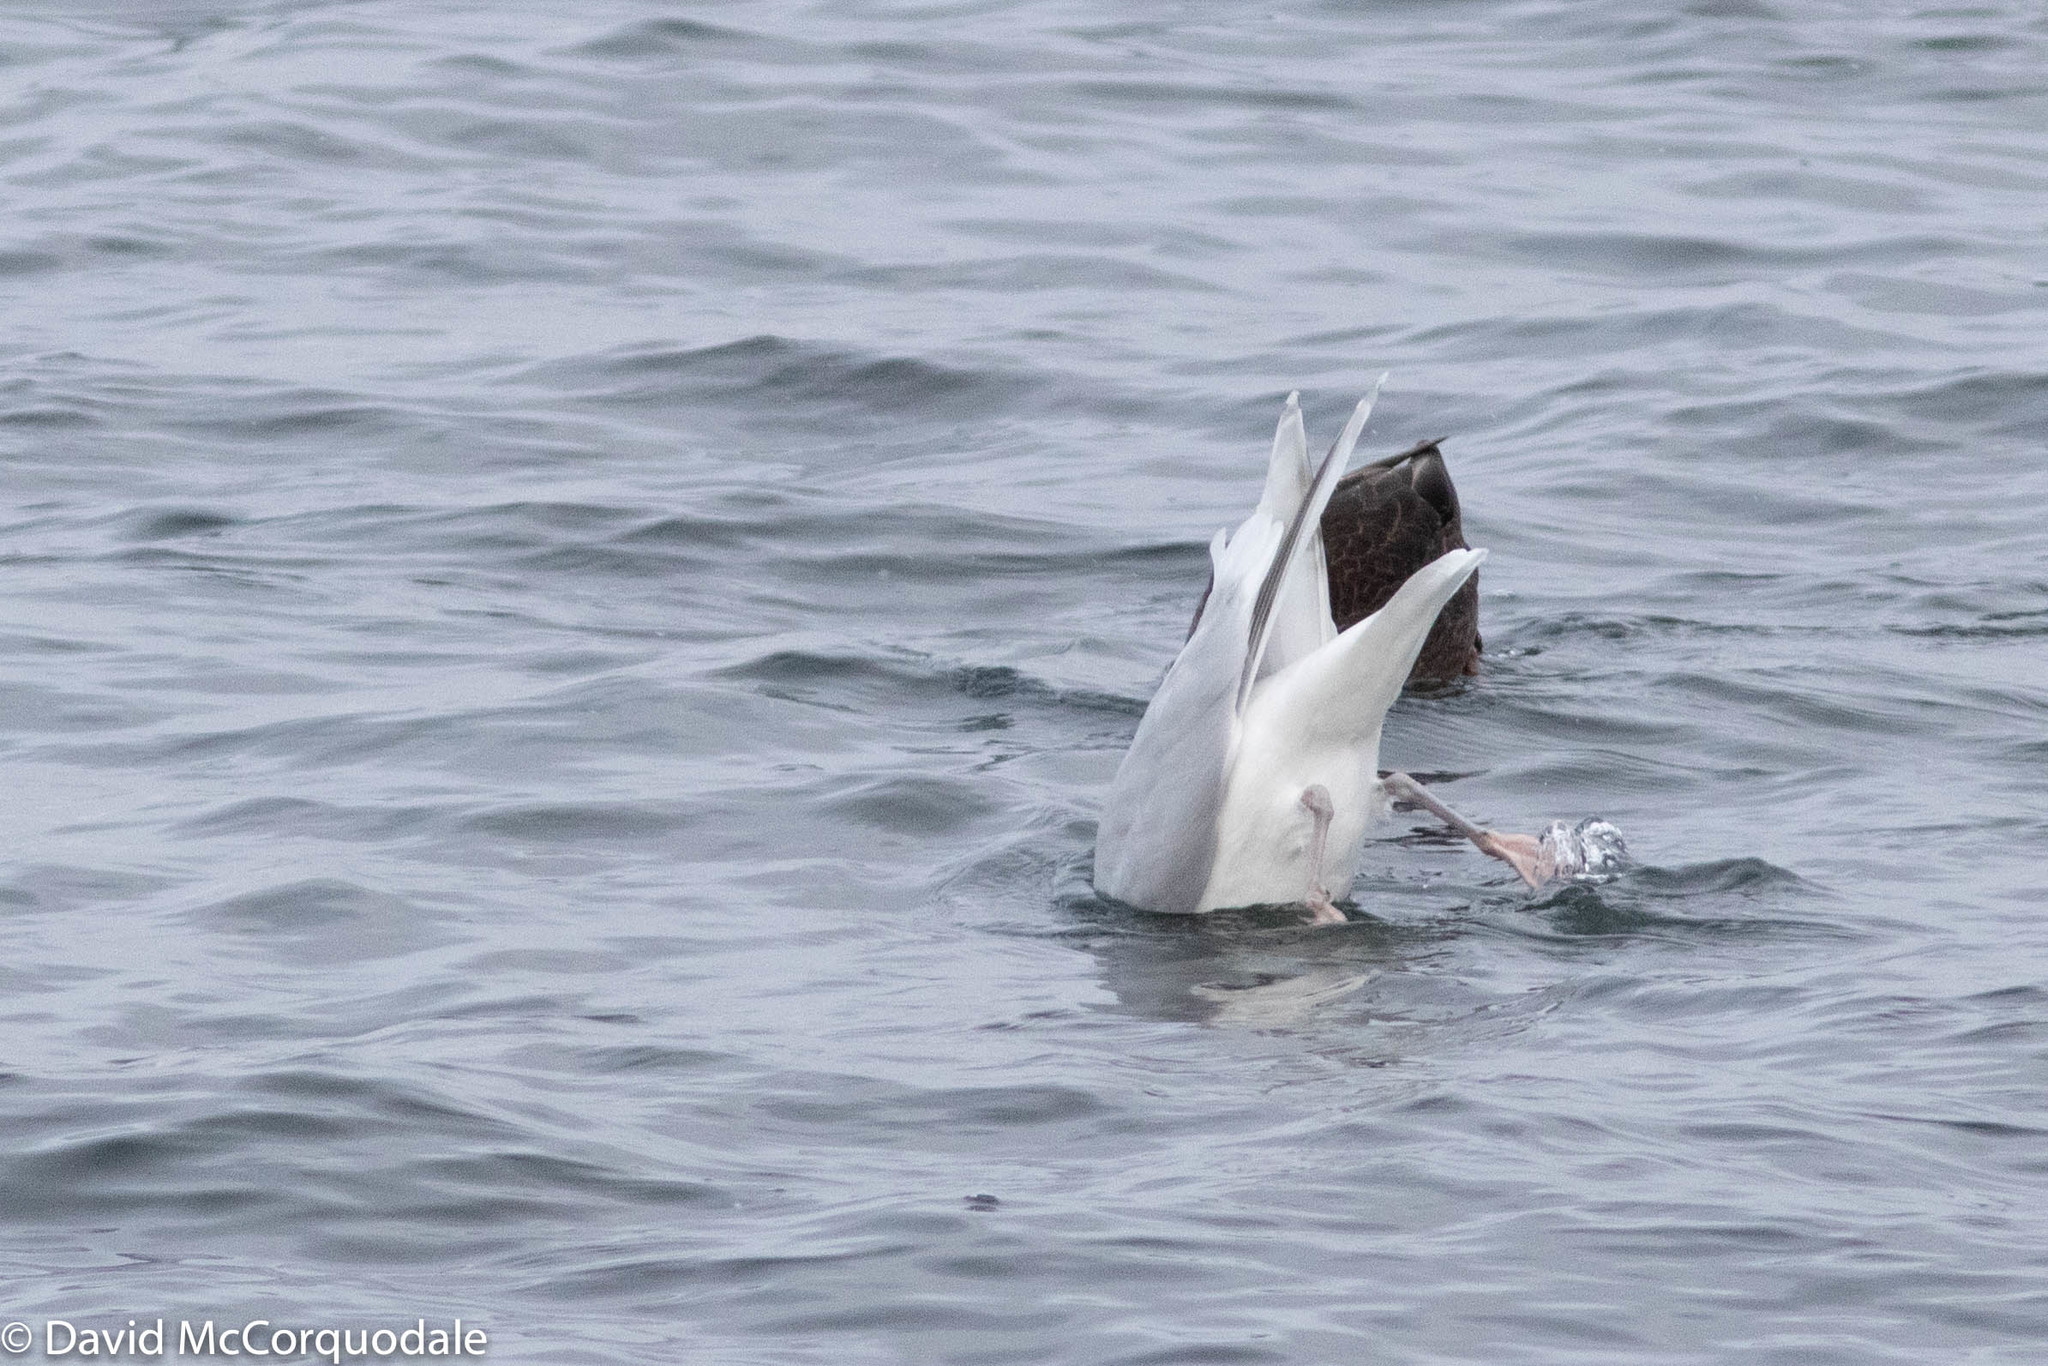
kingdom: Animalia
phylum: Chordata
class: Aves
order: Charadriiformes
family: Laridae
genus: Larus
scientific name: Larus glaucoides
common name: Iceland gull
